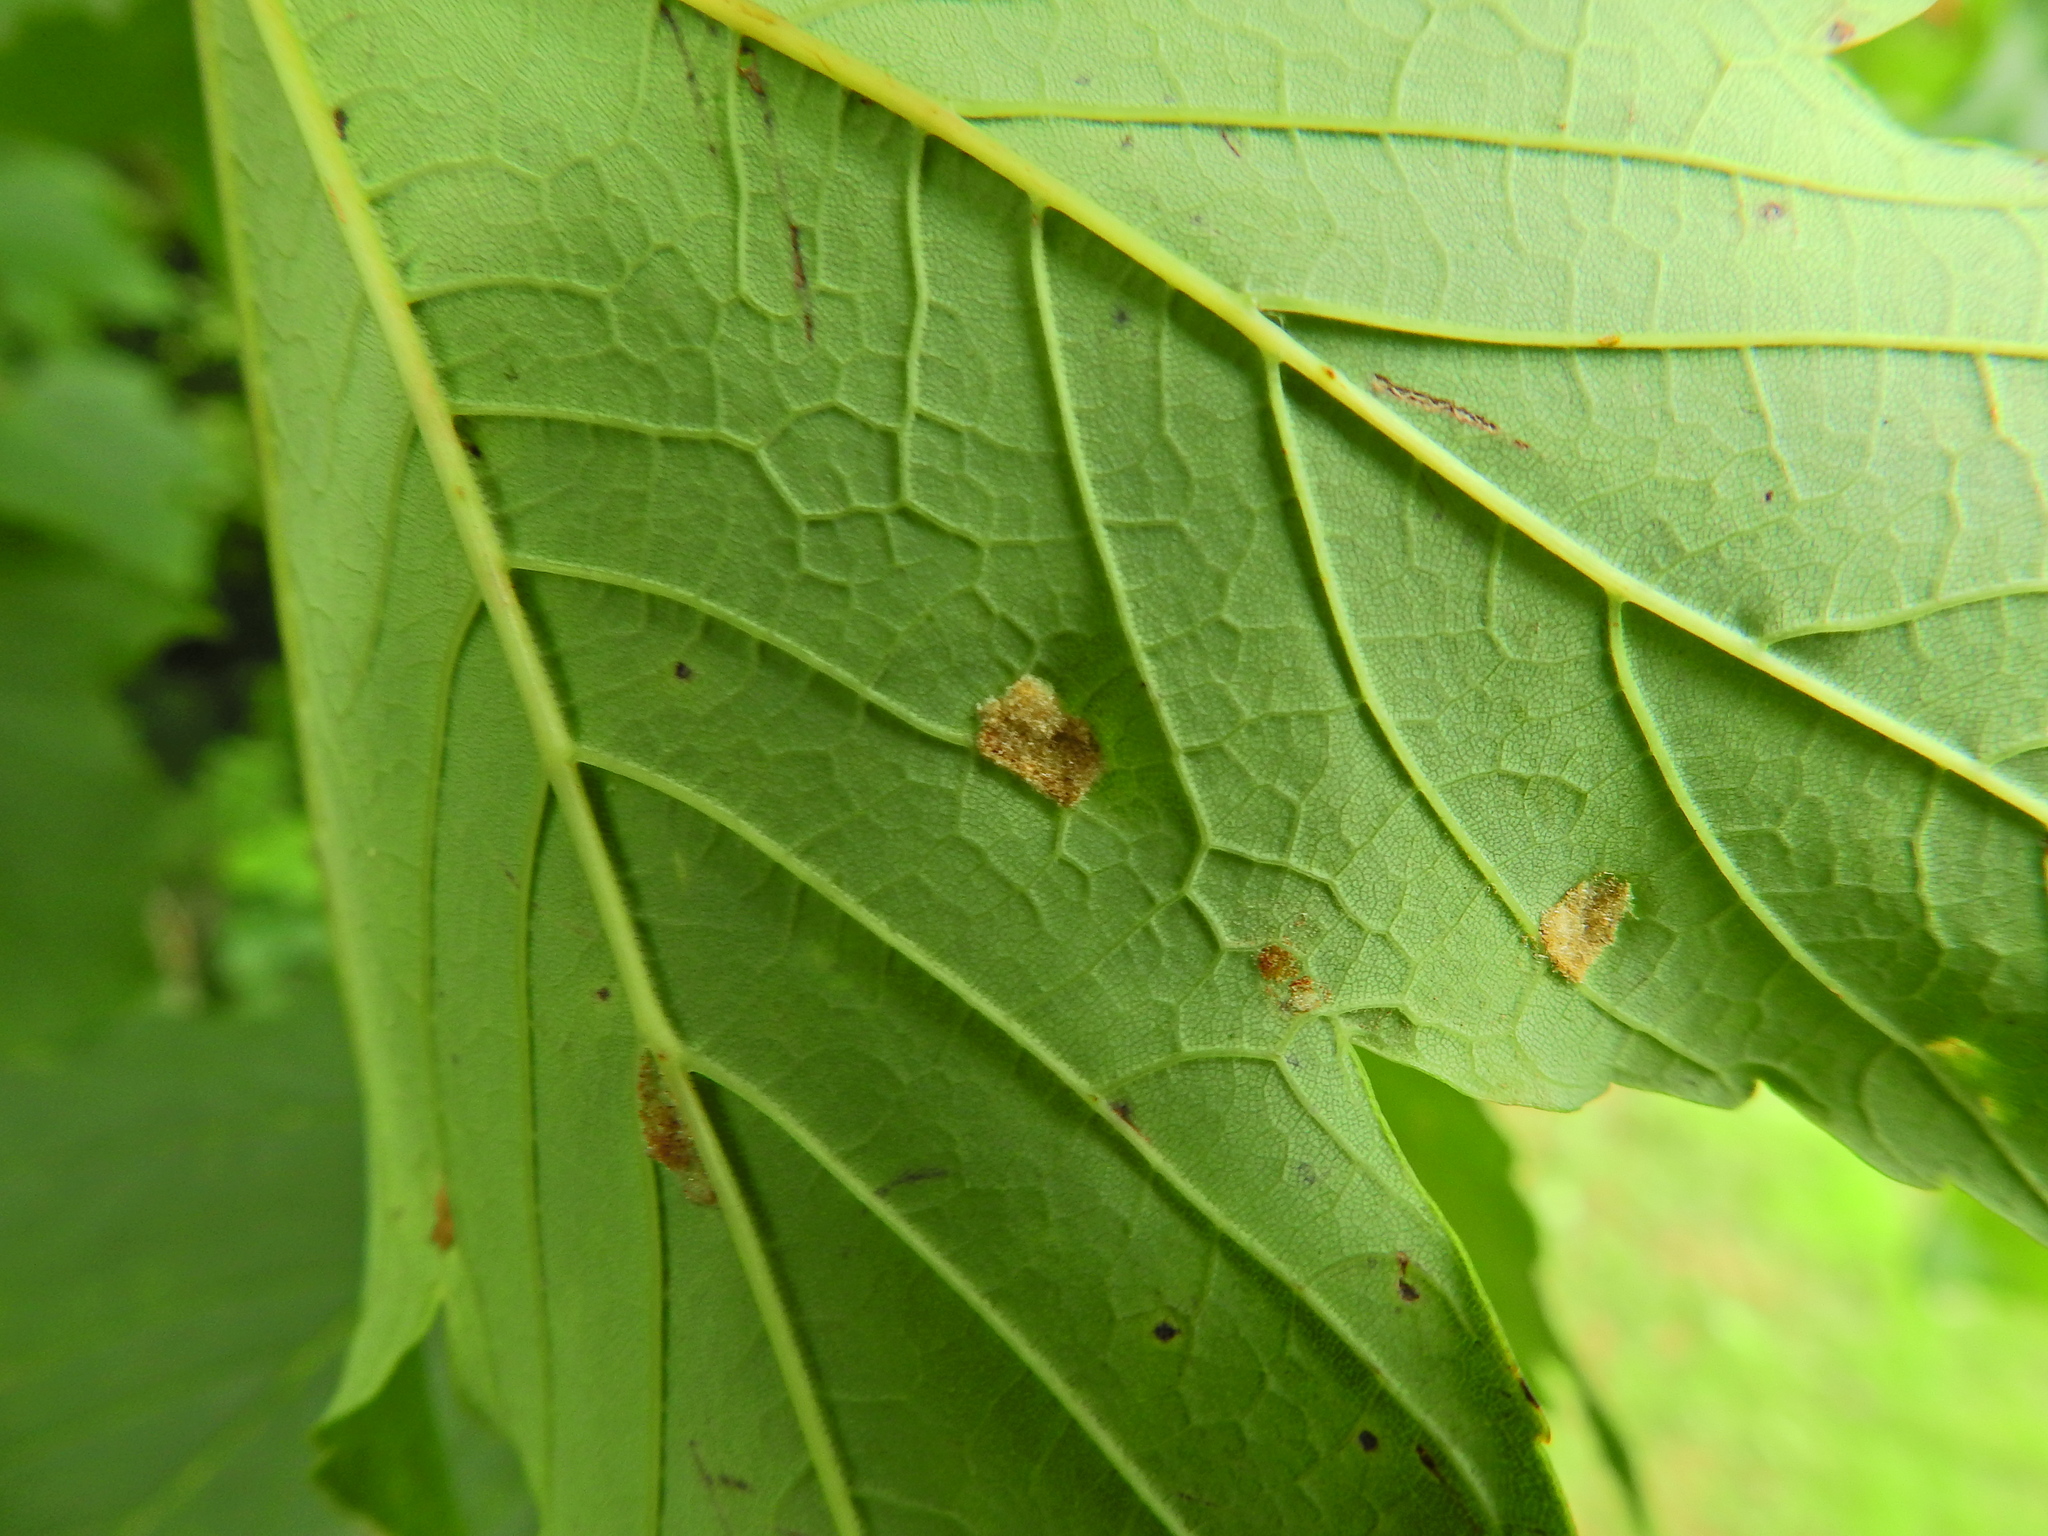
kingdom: Animalia
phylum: Arthropoda
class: Arachnida
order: Trombidiformes
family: Eriophyidae
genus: Aceria
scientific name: Aceria pseudoplatani
